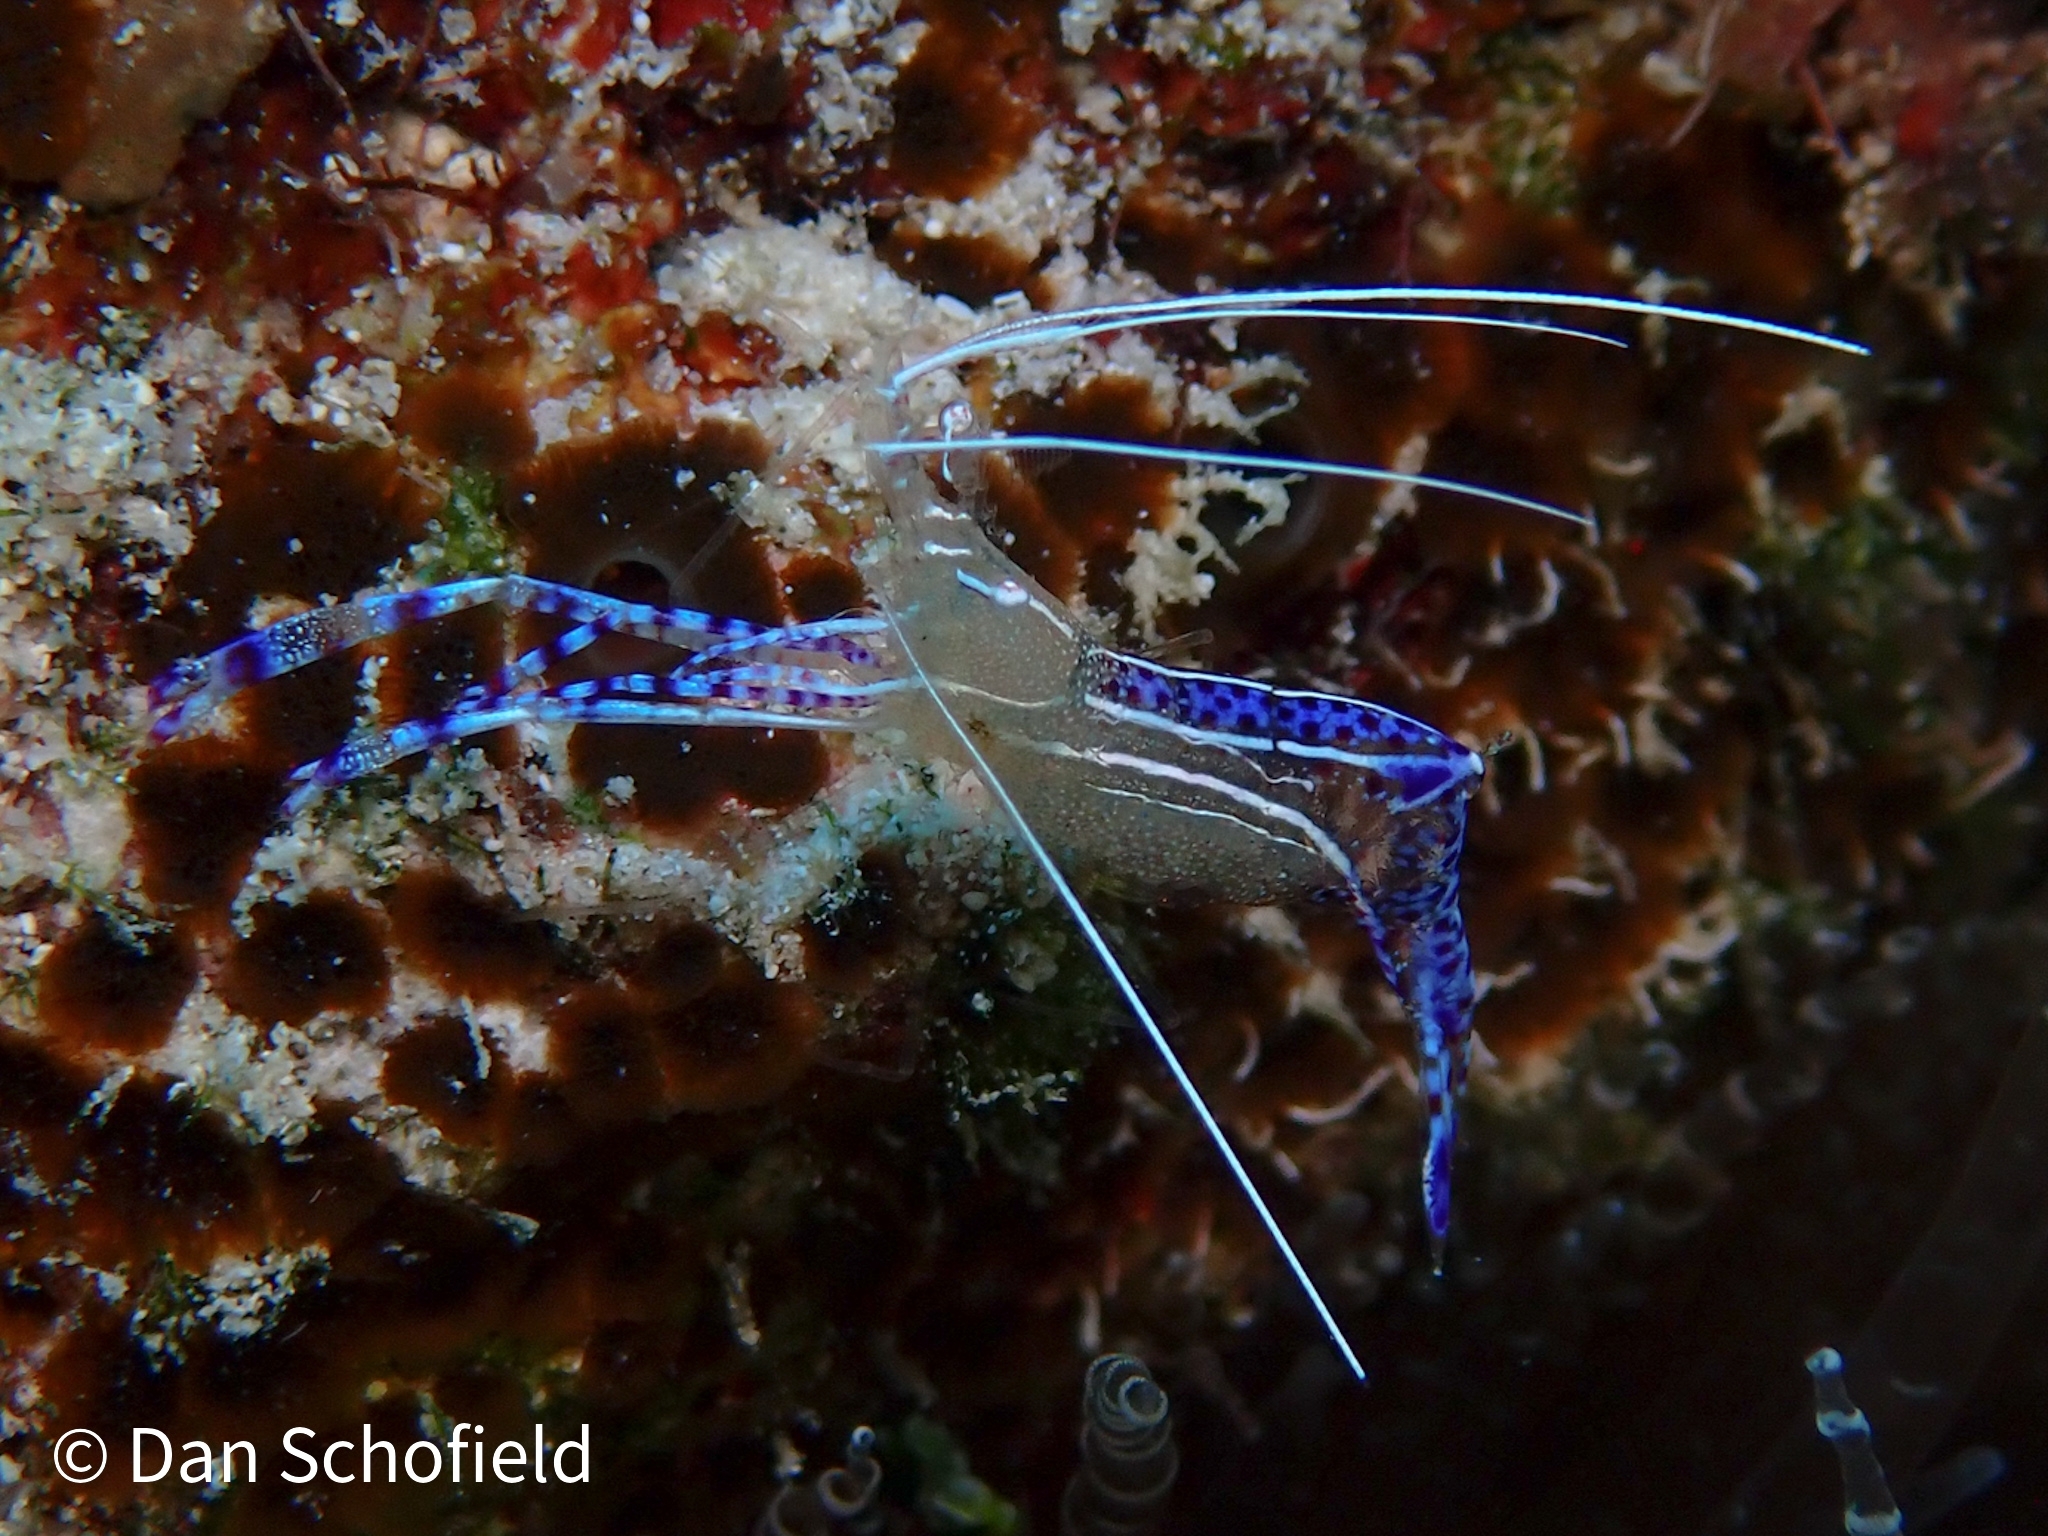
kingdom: Animalia
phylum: Arthropoda
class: Malacostraca
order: Decapoda
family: Palaemonidae
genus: Ancylomenes
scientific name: Ancylomenes pedersoni
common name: Pederson's cleaning shrimp
